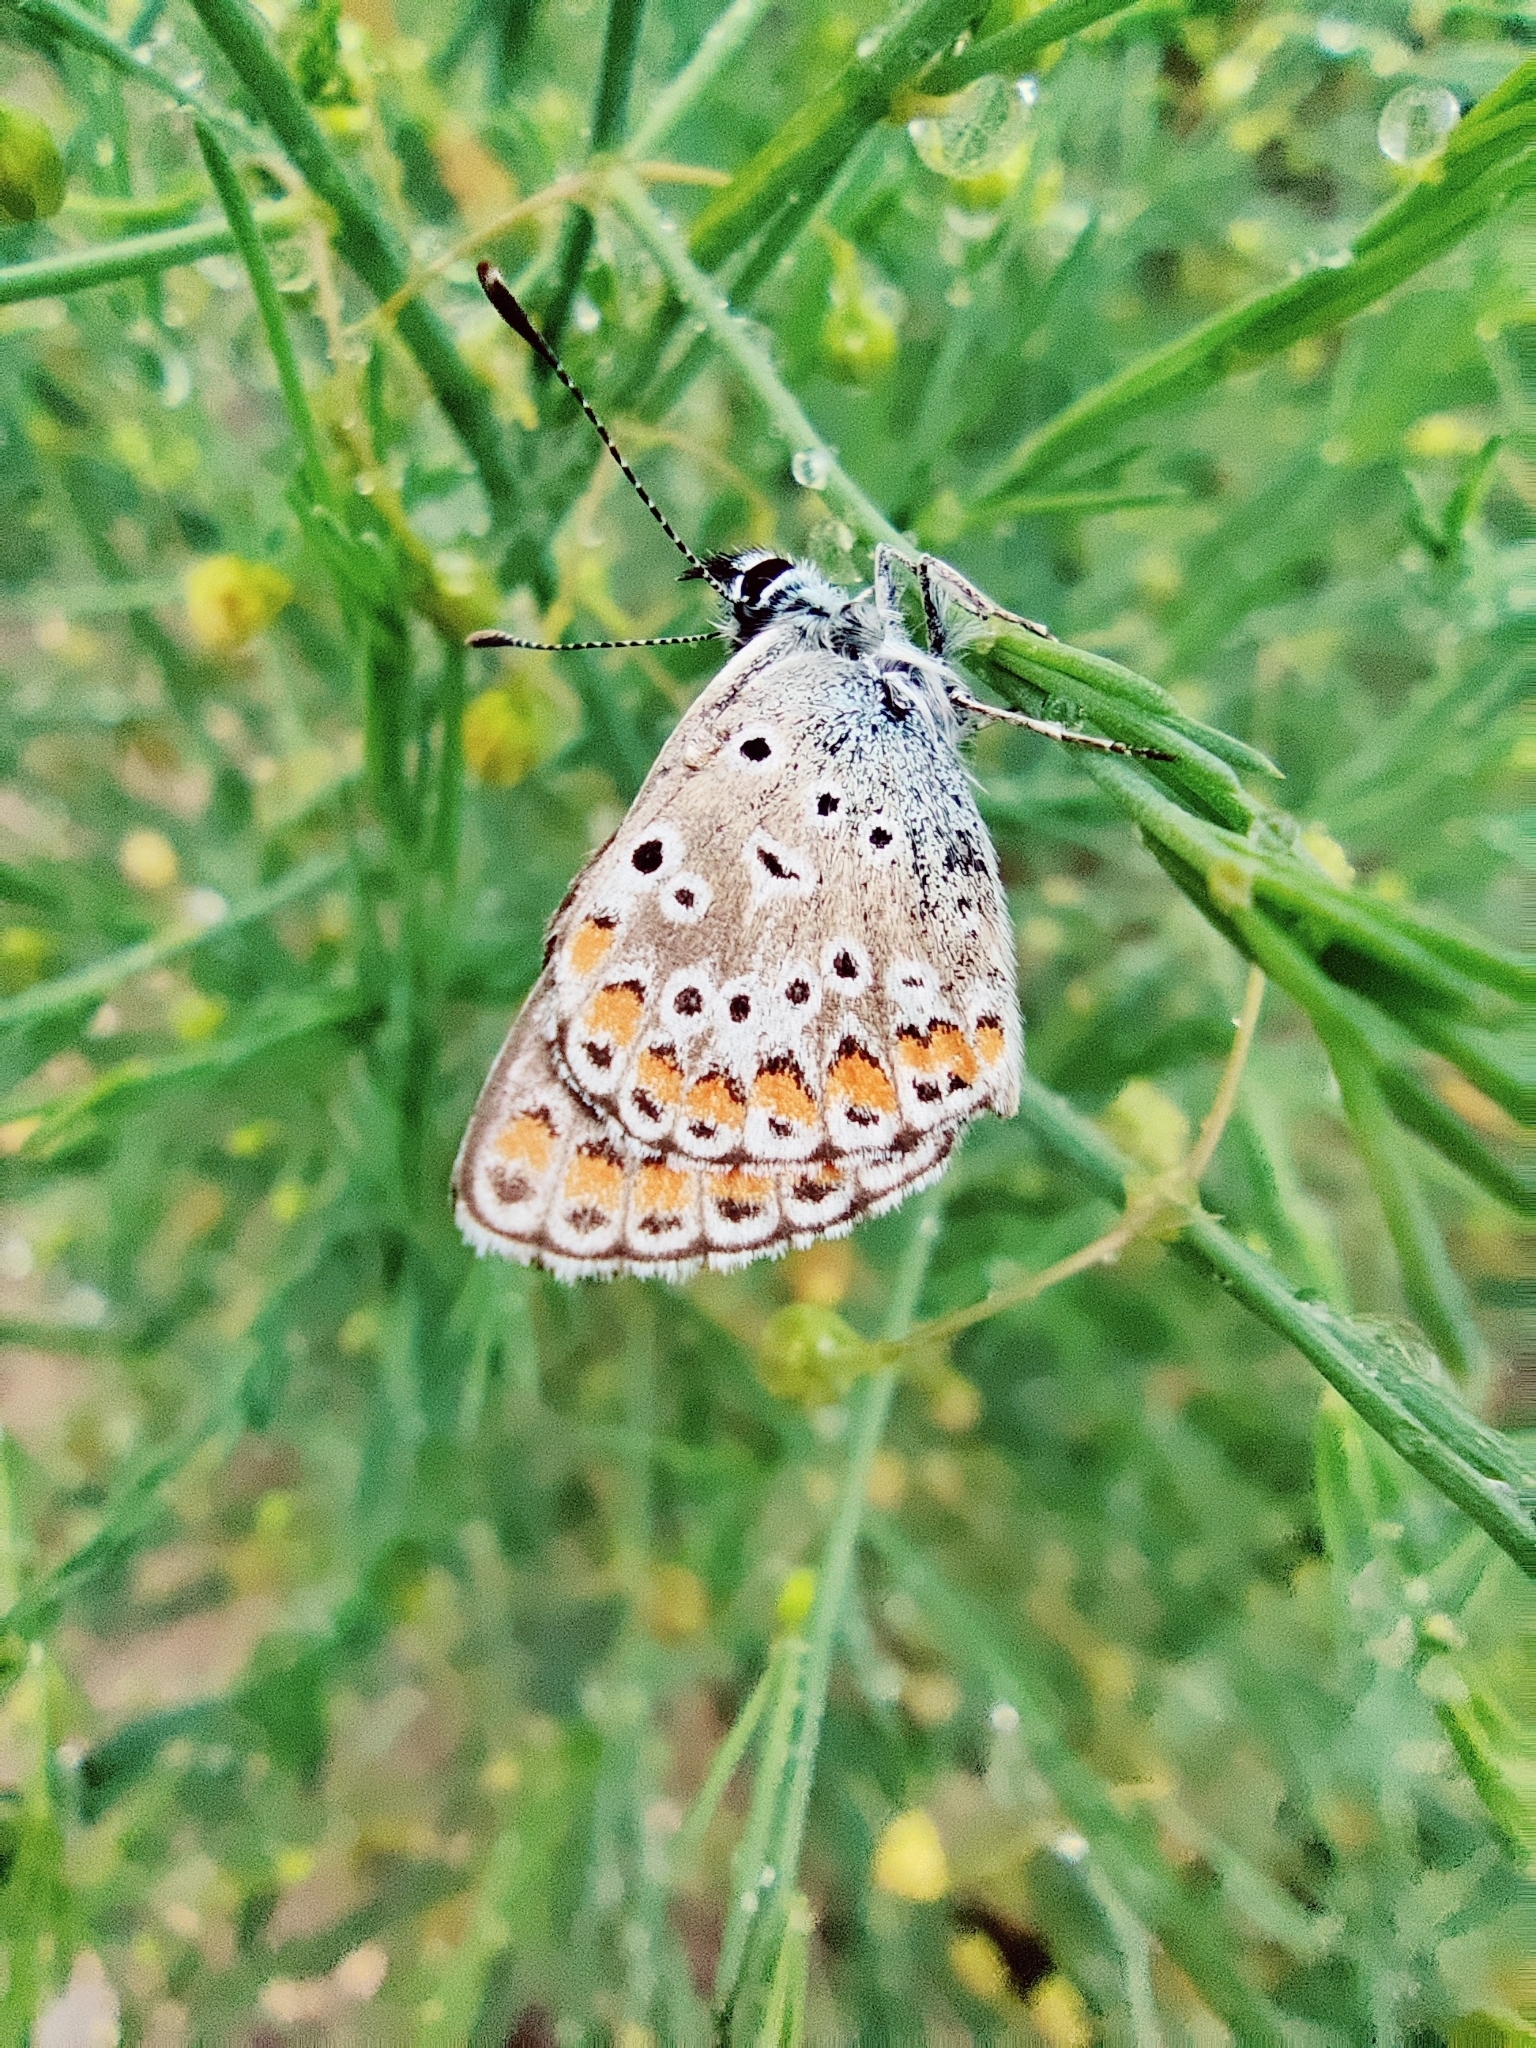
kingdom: Animalia
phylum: Arthropoda
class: Insecta
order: Lepidoptera
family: Lycaenidae
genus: Aricia
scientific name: Aricia agestis
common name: Brown argus
